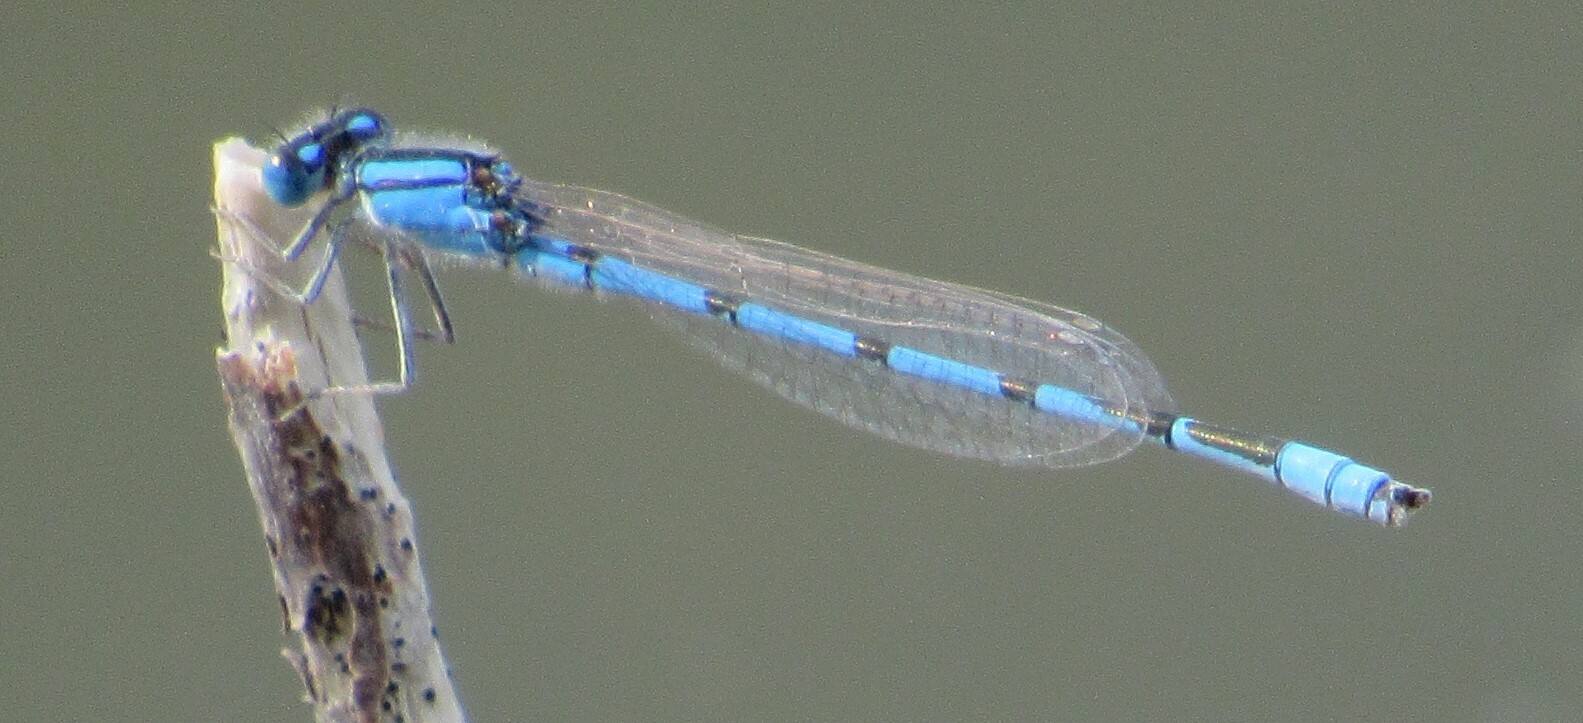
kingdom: Animalia
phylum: Arthropoda
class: Insecta
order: Odonata
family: Coenagrionidae
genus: Enallagma
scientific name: Enallagma civile
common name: Damselfly
